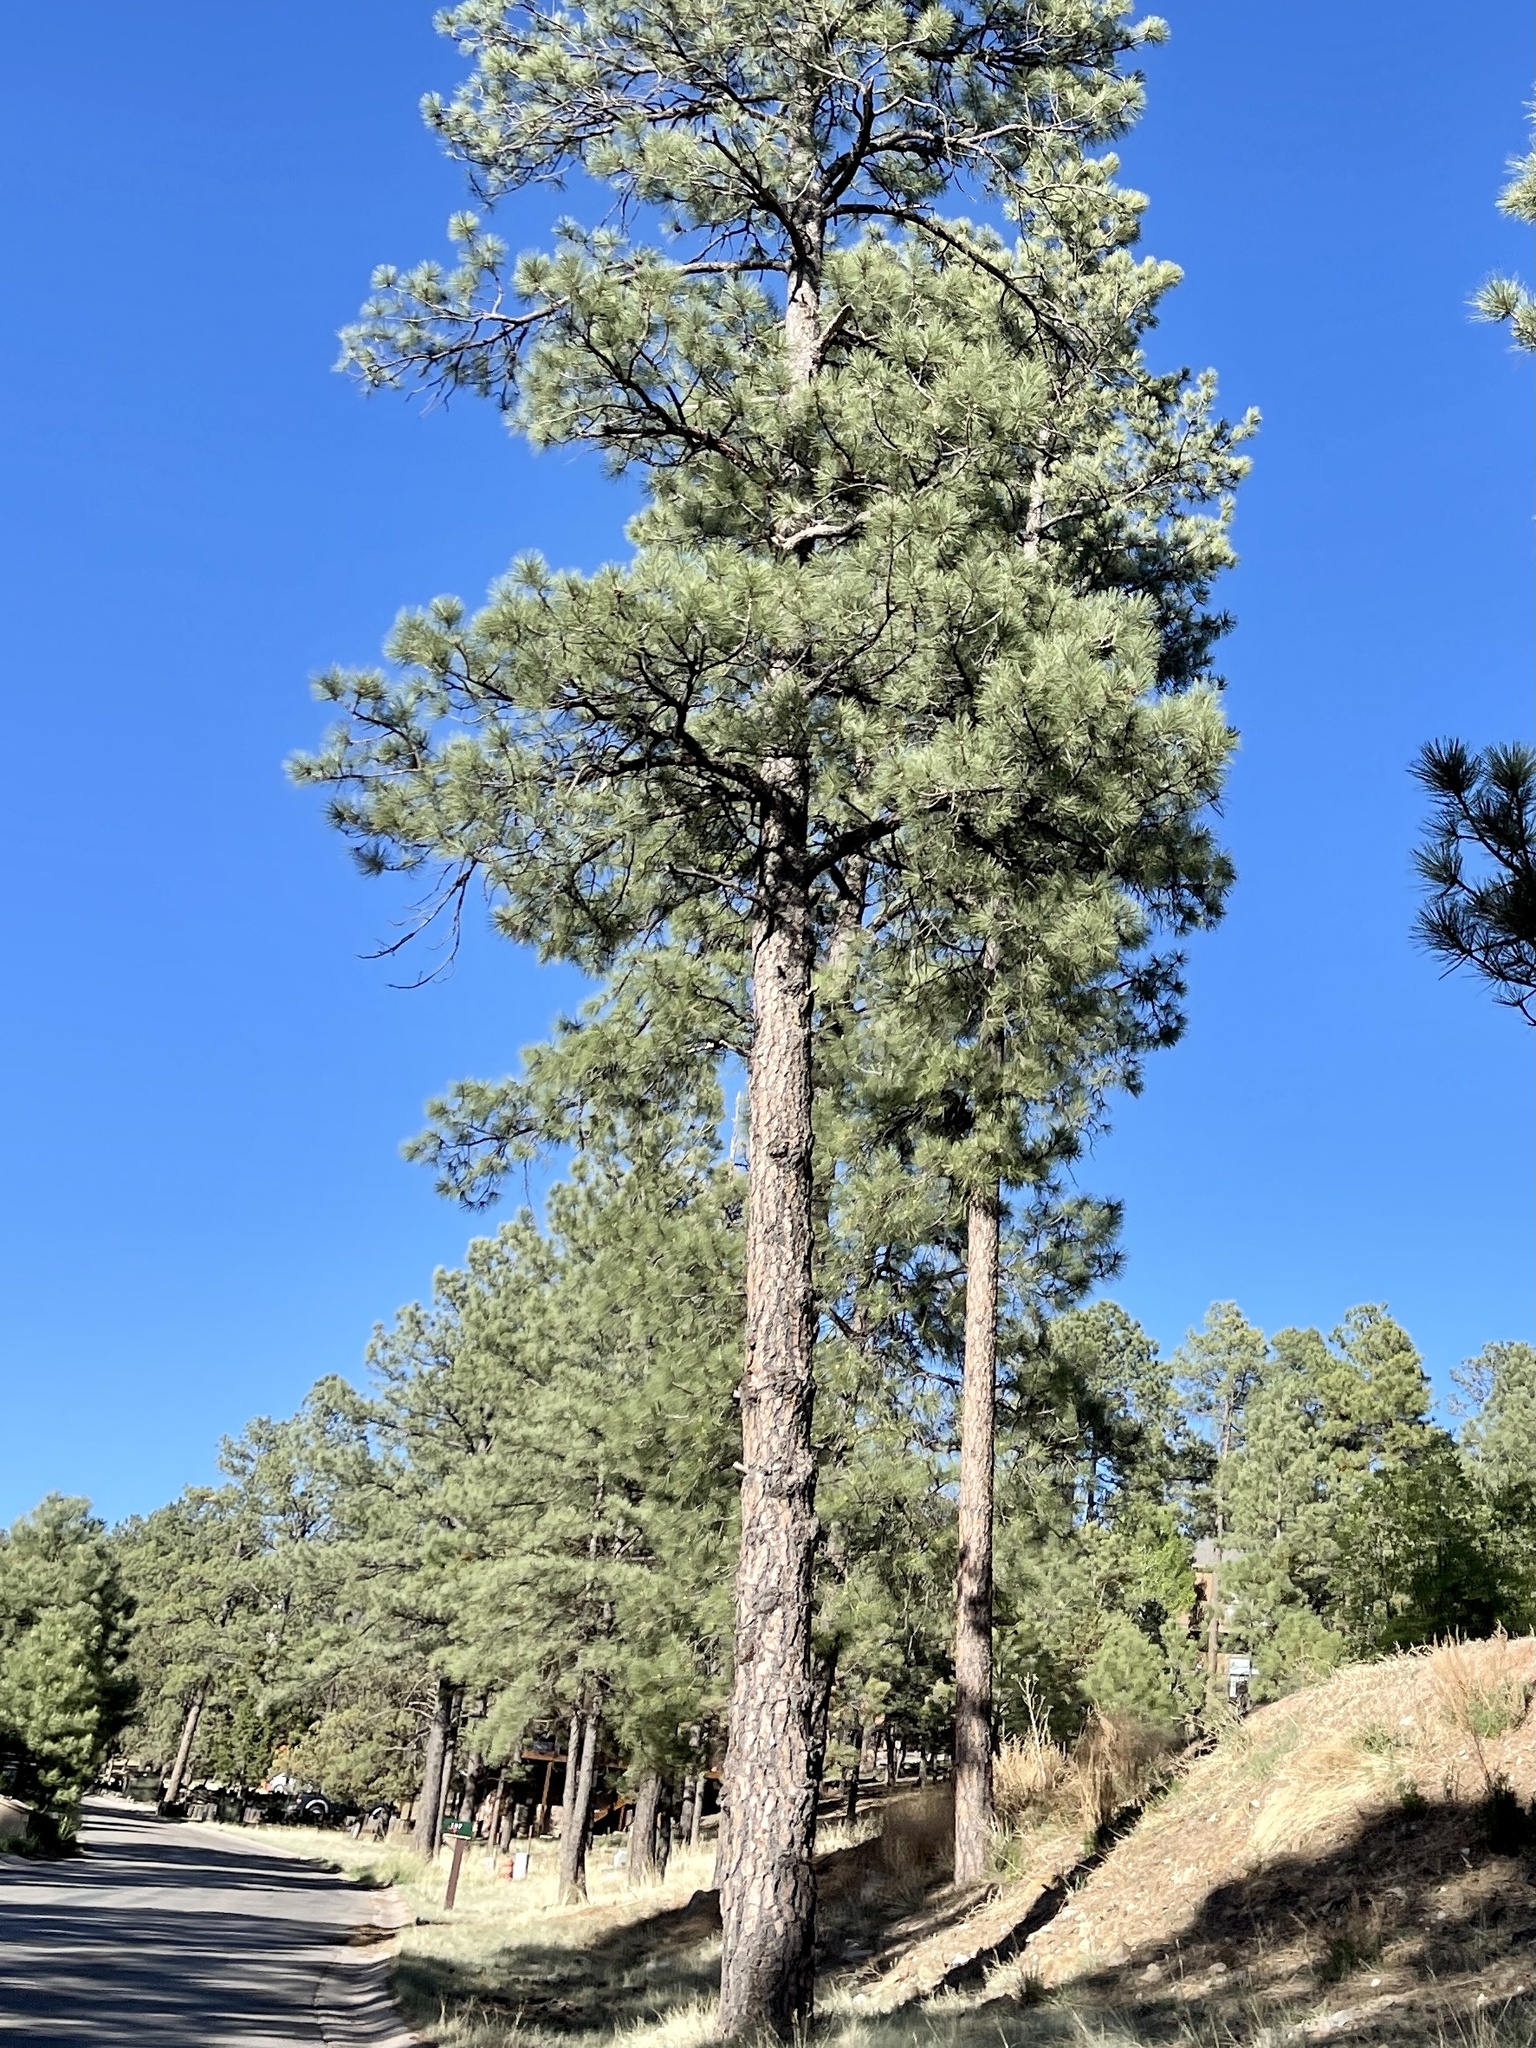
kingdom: Plantae
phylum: Tracheophyta
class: Pinopsida
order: Pinales
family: Pinaceae
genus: Pinus
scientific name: Pinus ponderosa
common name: Western yellow-pine
